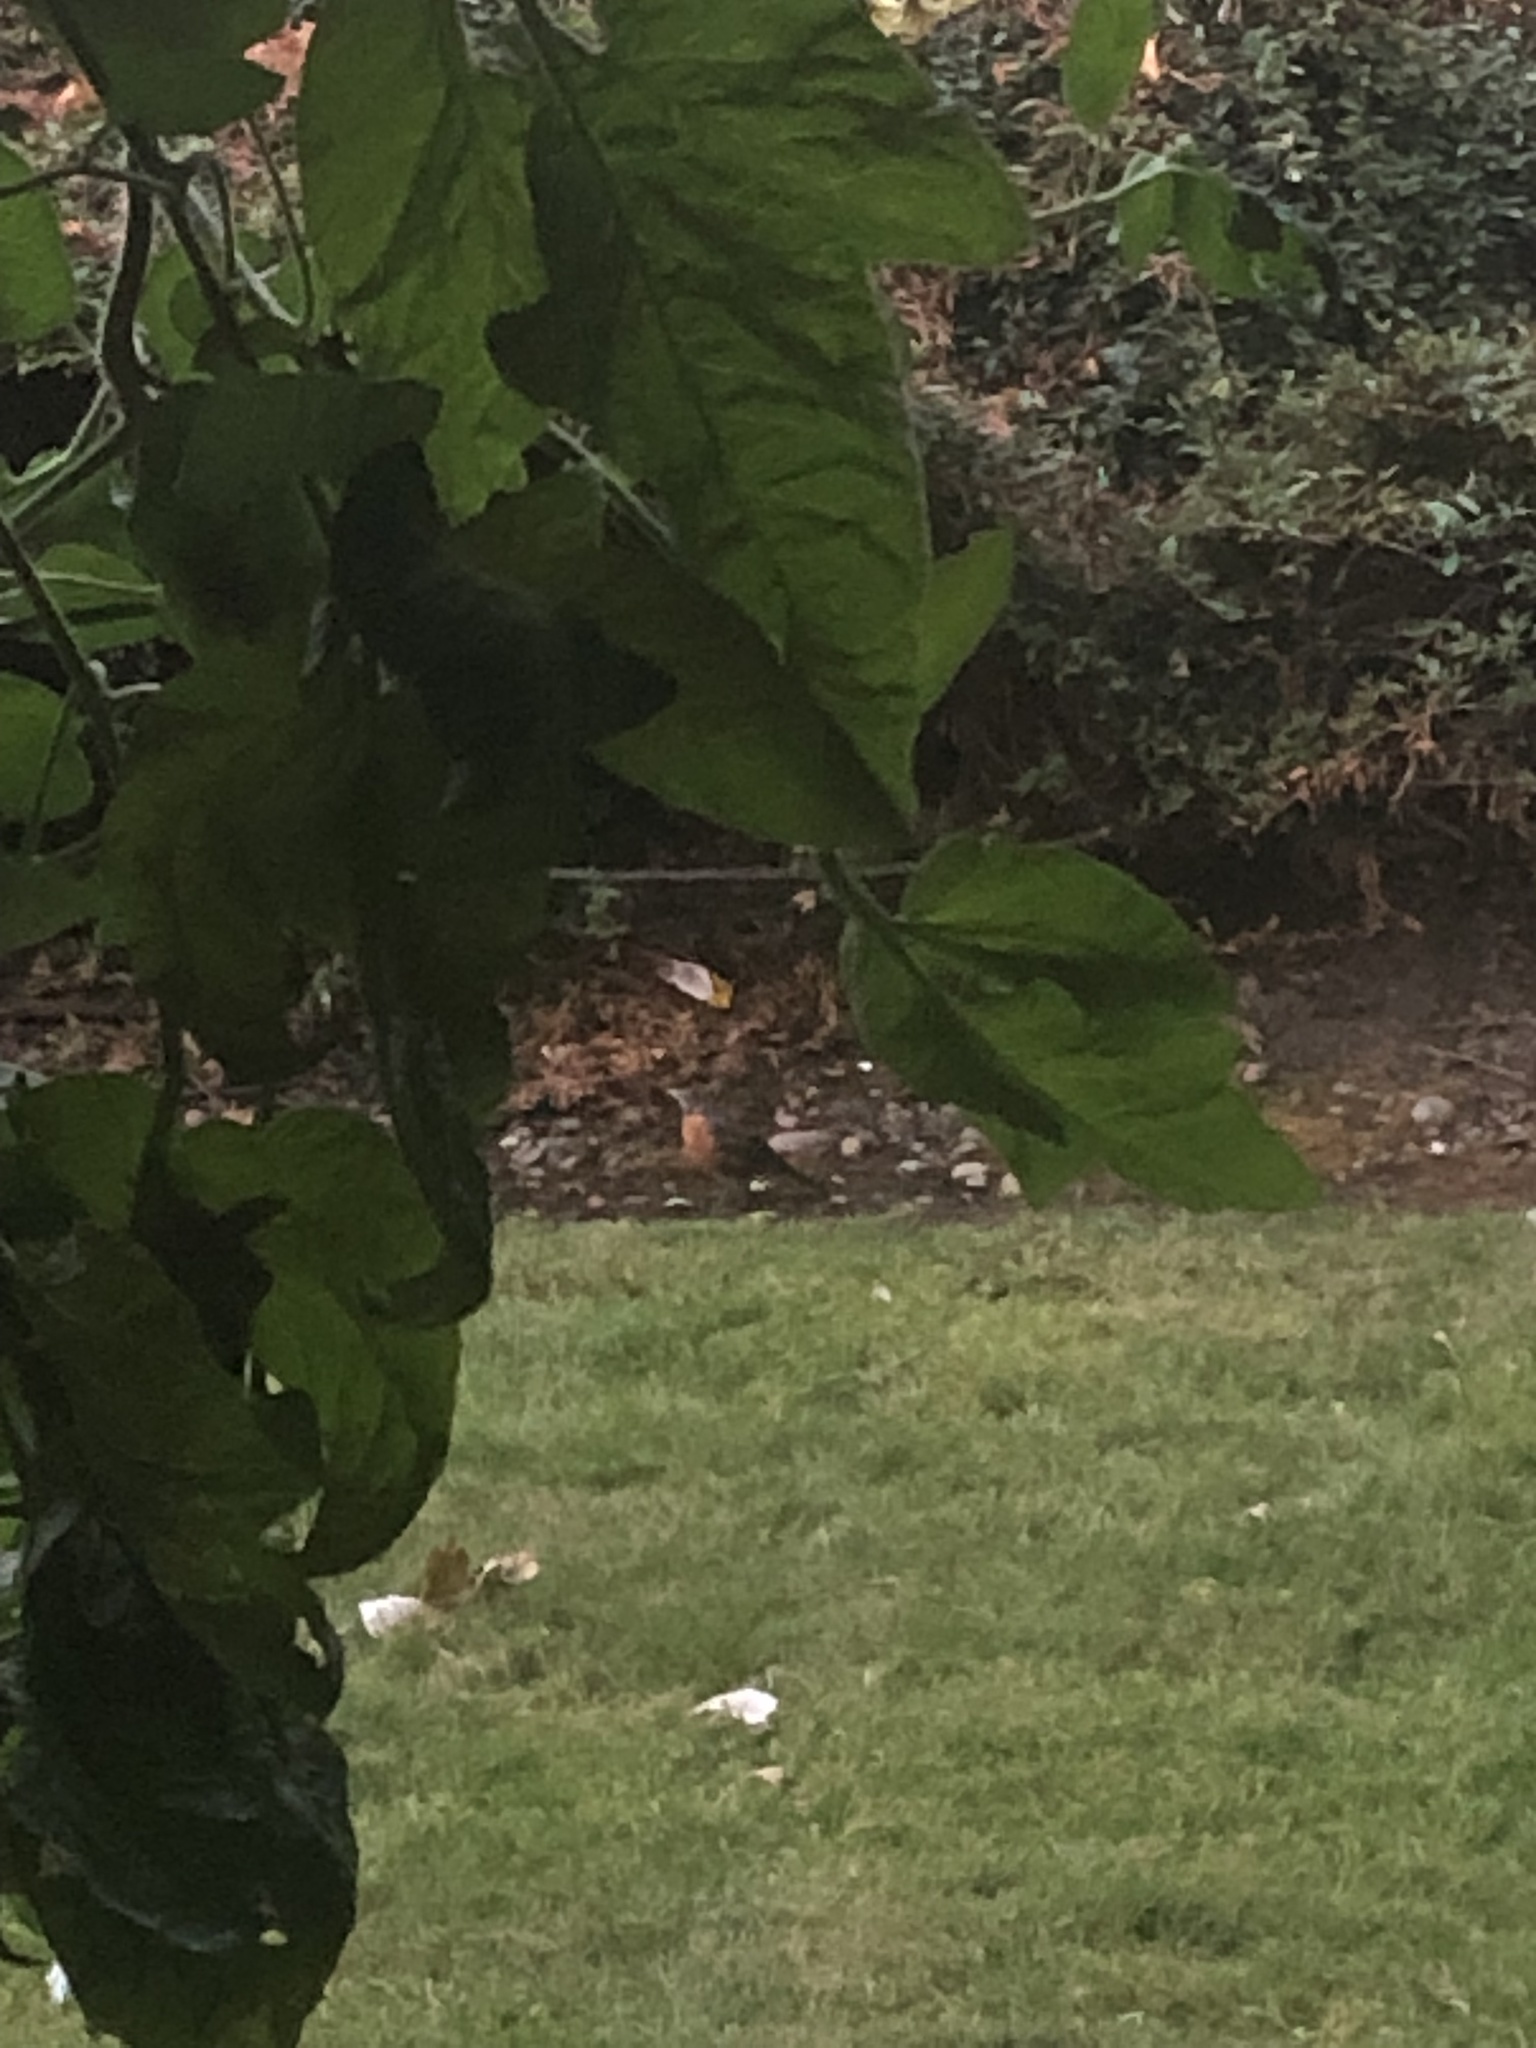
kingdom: Animalia
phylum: Chordata
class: Aves
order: Passeriformes
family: Turdidae
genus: Turdus
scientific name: Turdus migratorius
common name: American robin
